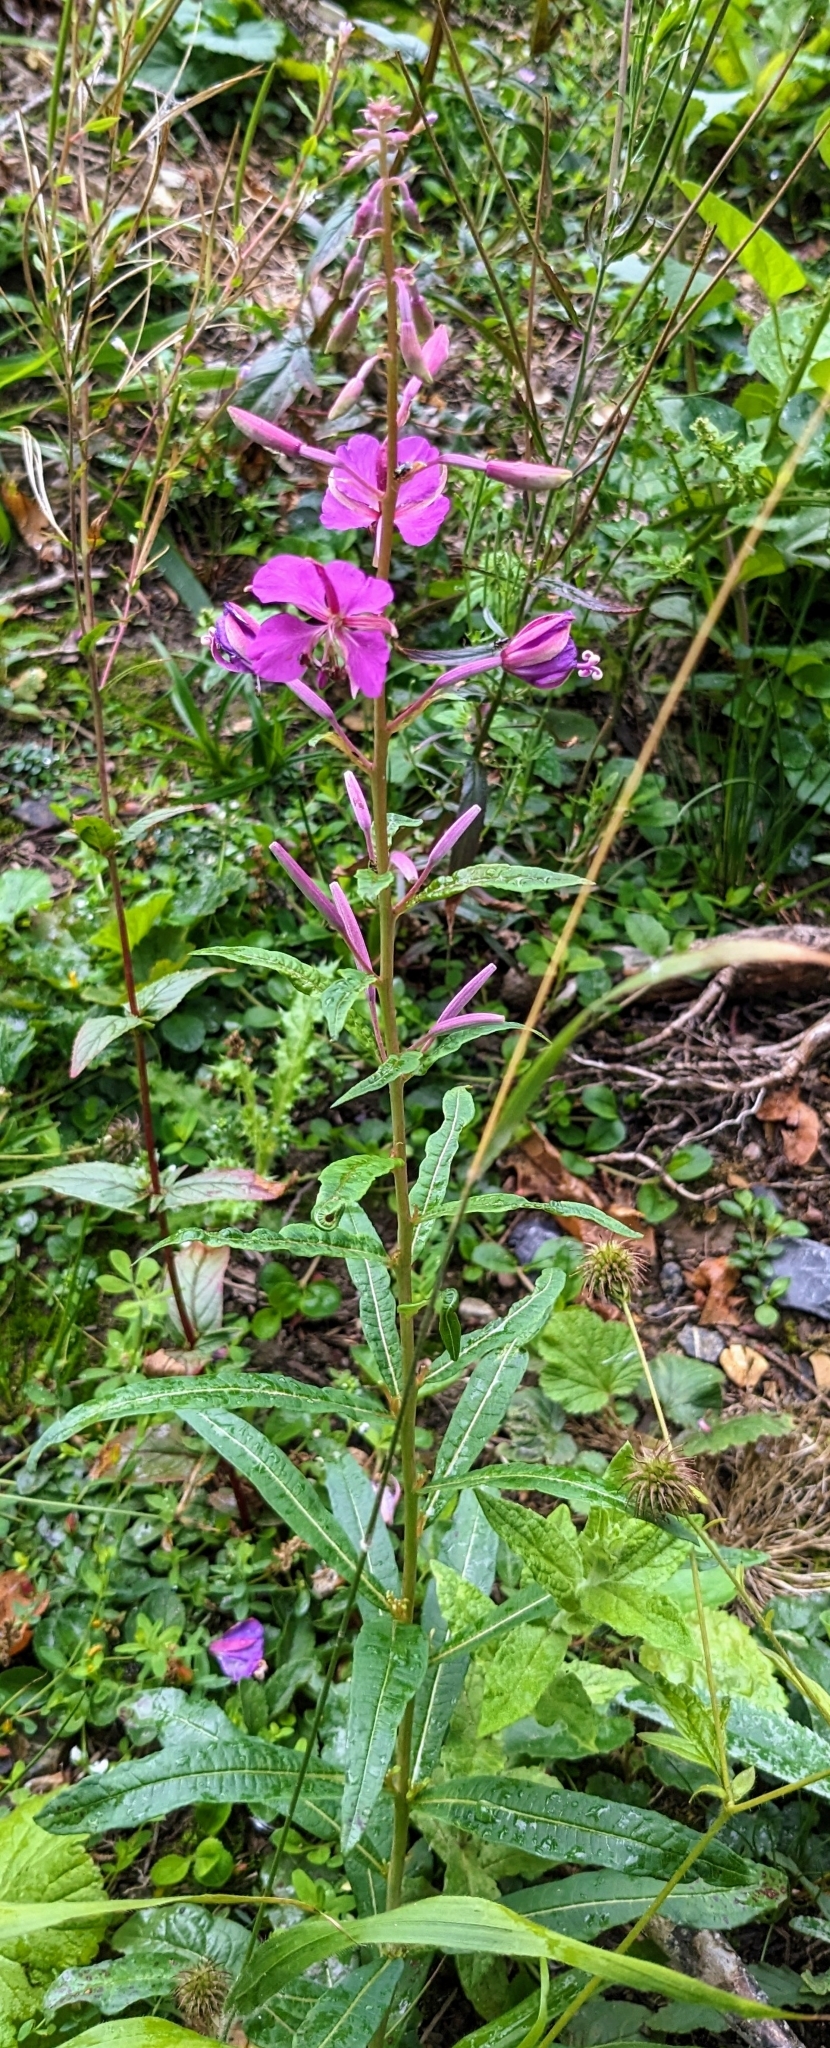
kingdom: Plantae
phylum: Tracheophyta
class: Magnoliopsida
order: Myrtales
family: Onagraceae
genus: Chamaenerion
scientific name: Chamaenerion angustifolium
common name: Fireweed
